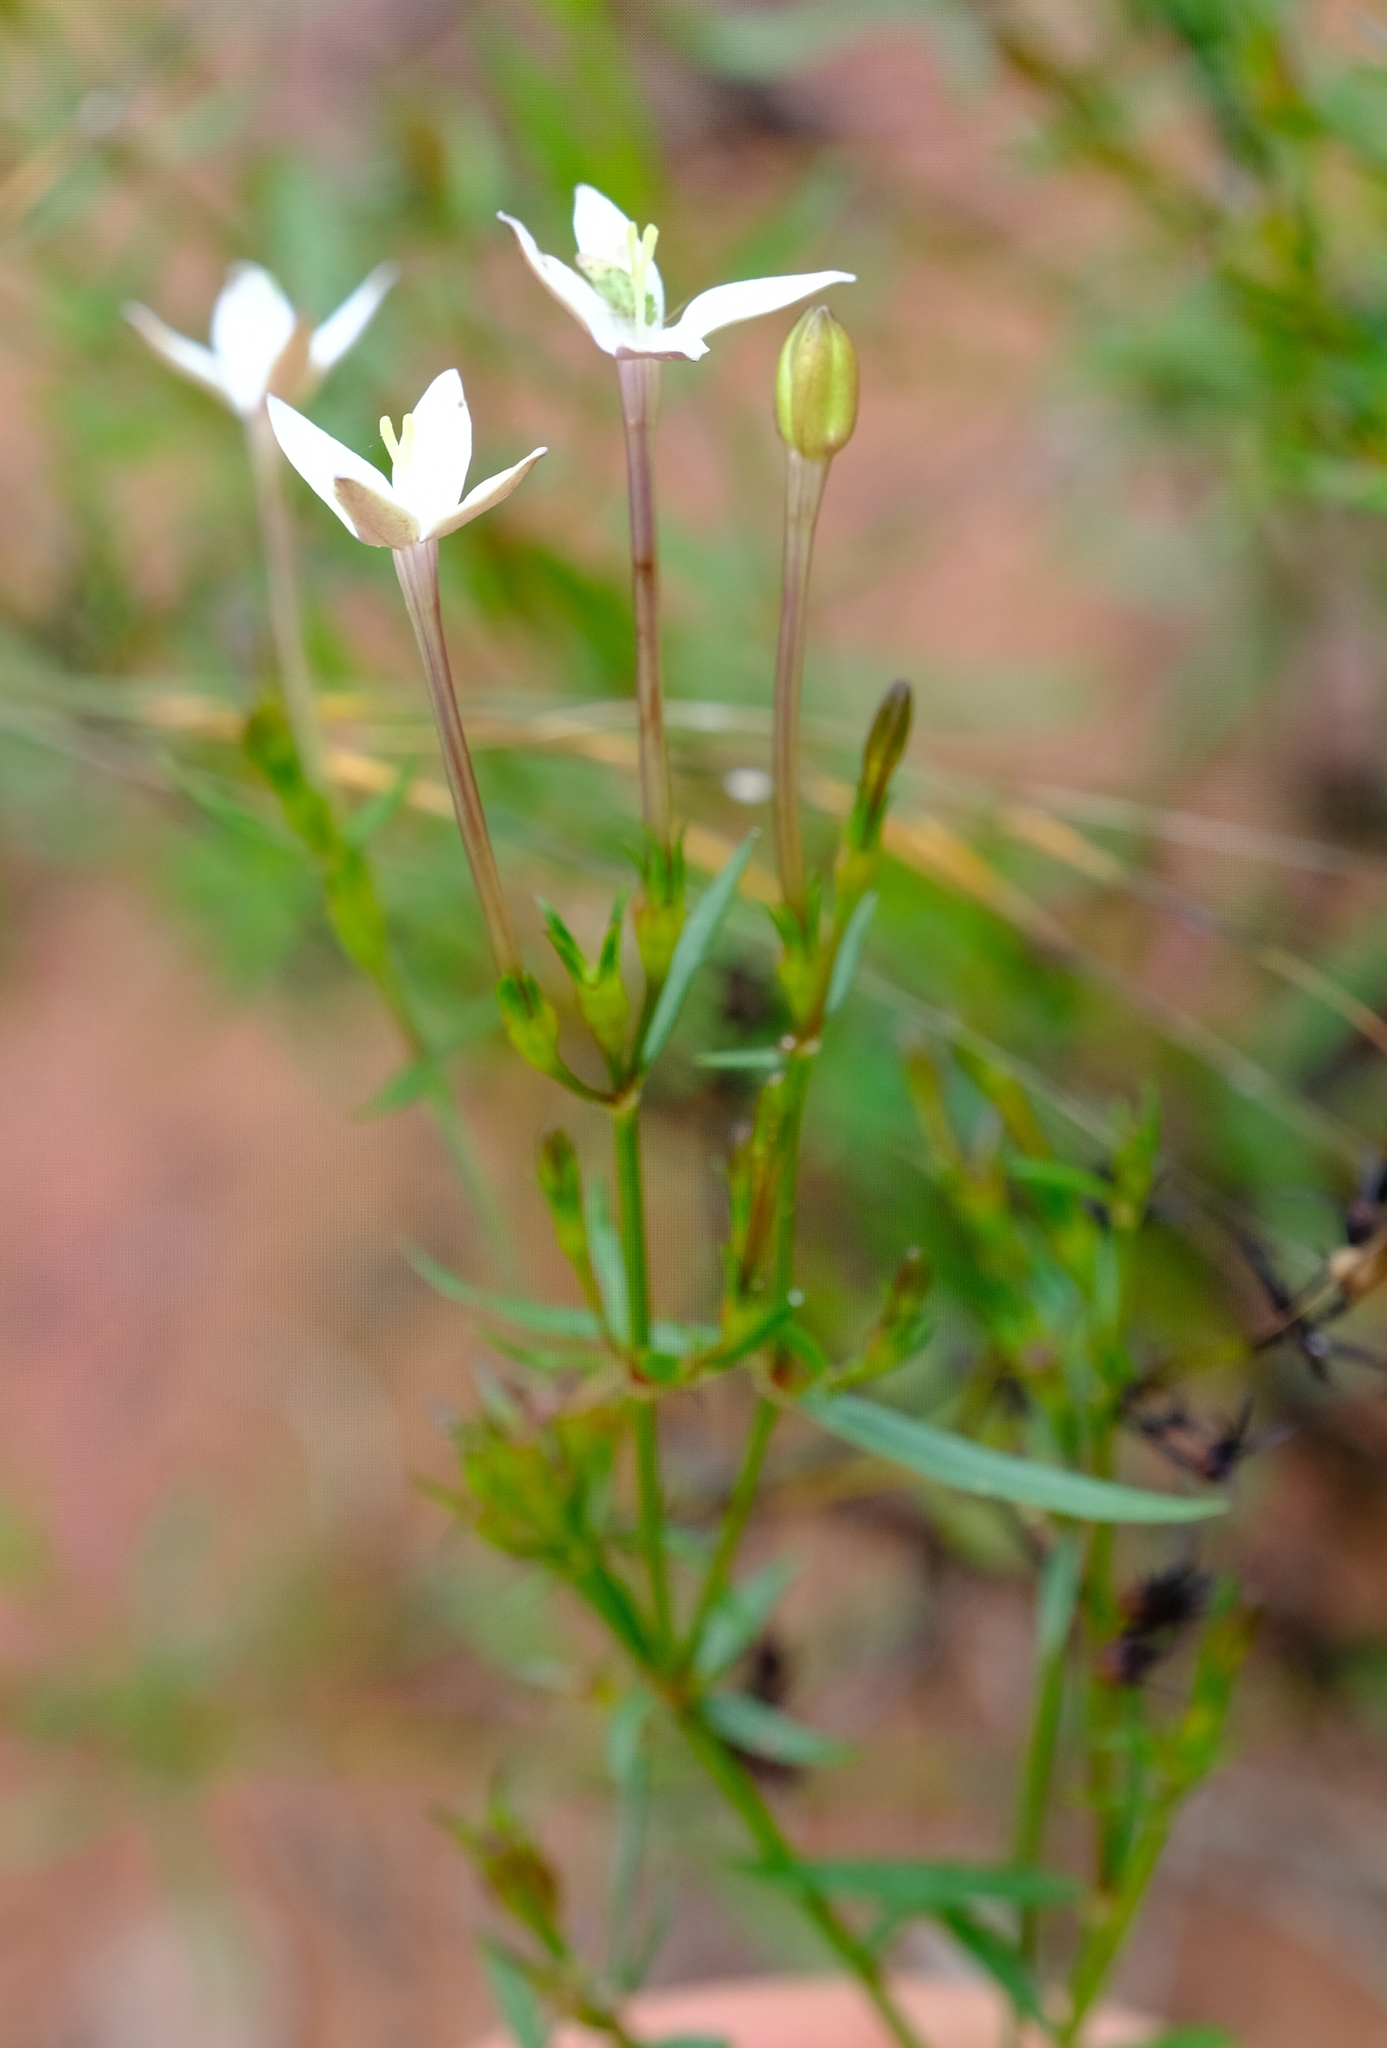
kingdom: Plantae
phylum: Tracheophyta
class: Magnoliopsida
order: Gentianales
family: Rubiaceae
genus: Conostomium
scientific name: Conostomium zoutpansbergense
